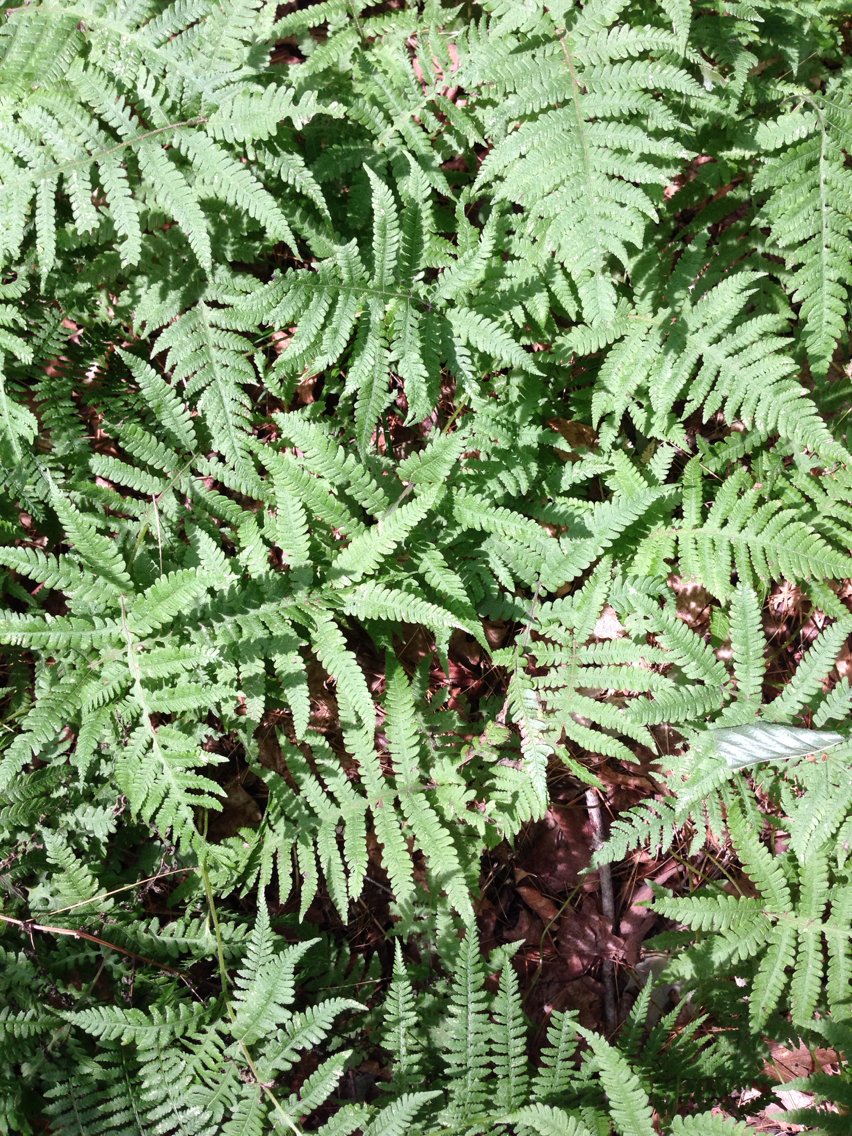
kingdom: Plantae
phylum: Tracheophyta
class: Polypodiopsida
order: Polypodiales
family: Thelypteridaceae
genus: Phegopteris
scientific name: Phegopteris connectilis
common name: Beech fern
